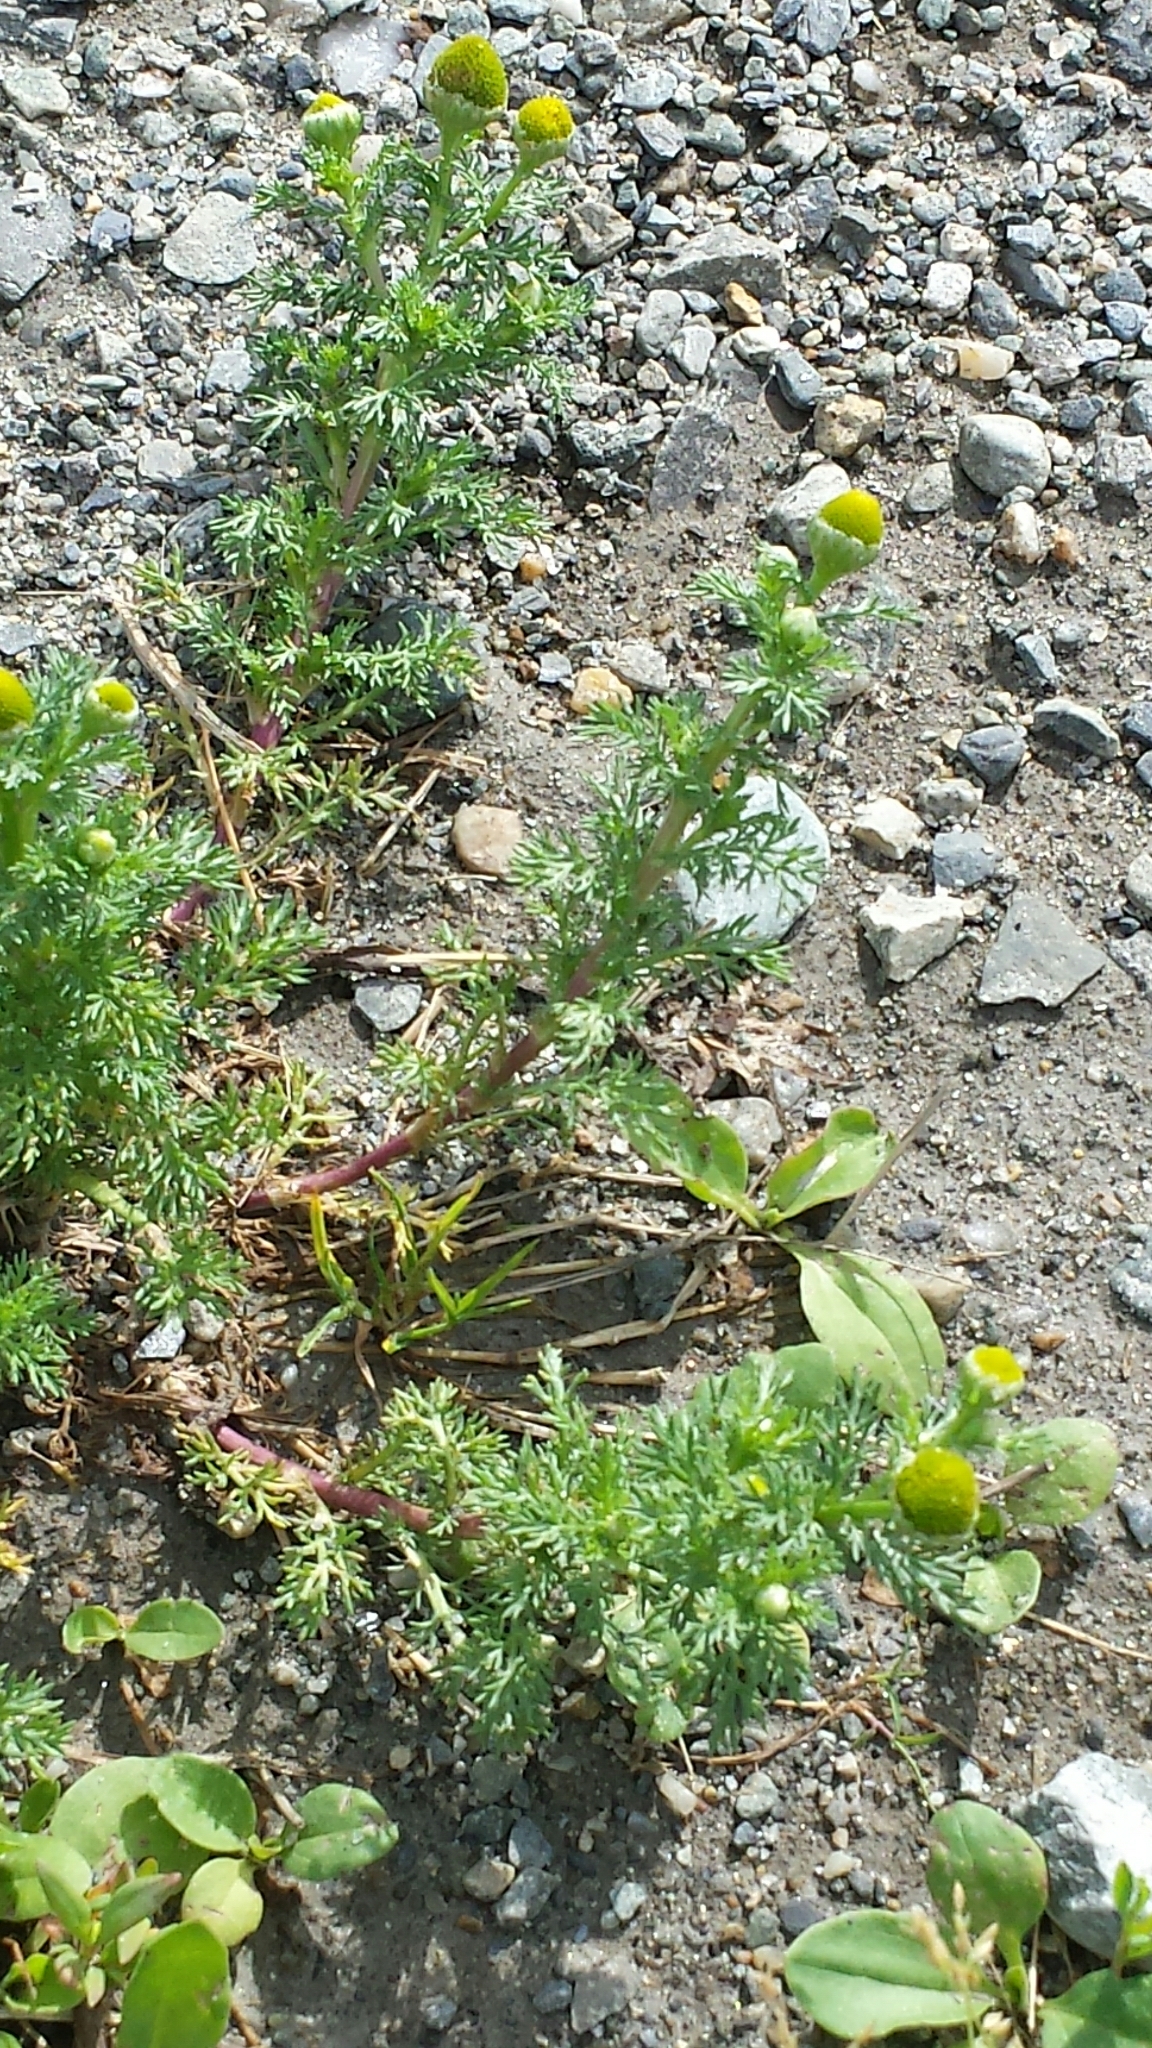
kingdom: Plantae
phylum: Tracheophyta
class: Magnoliopsida
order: Asterales
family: Asteraceae
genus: Matricaria
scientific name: Matricaria discoidea
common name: Disc mayweed
